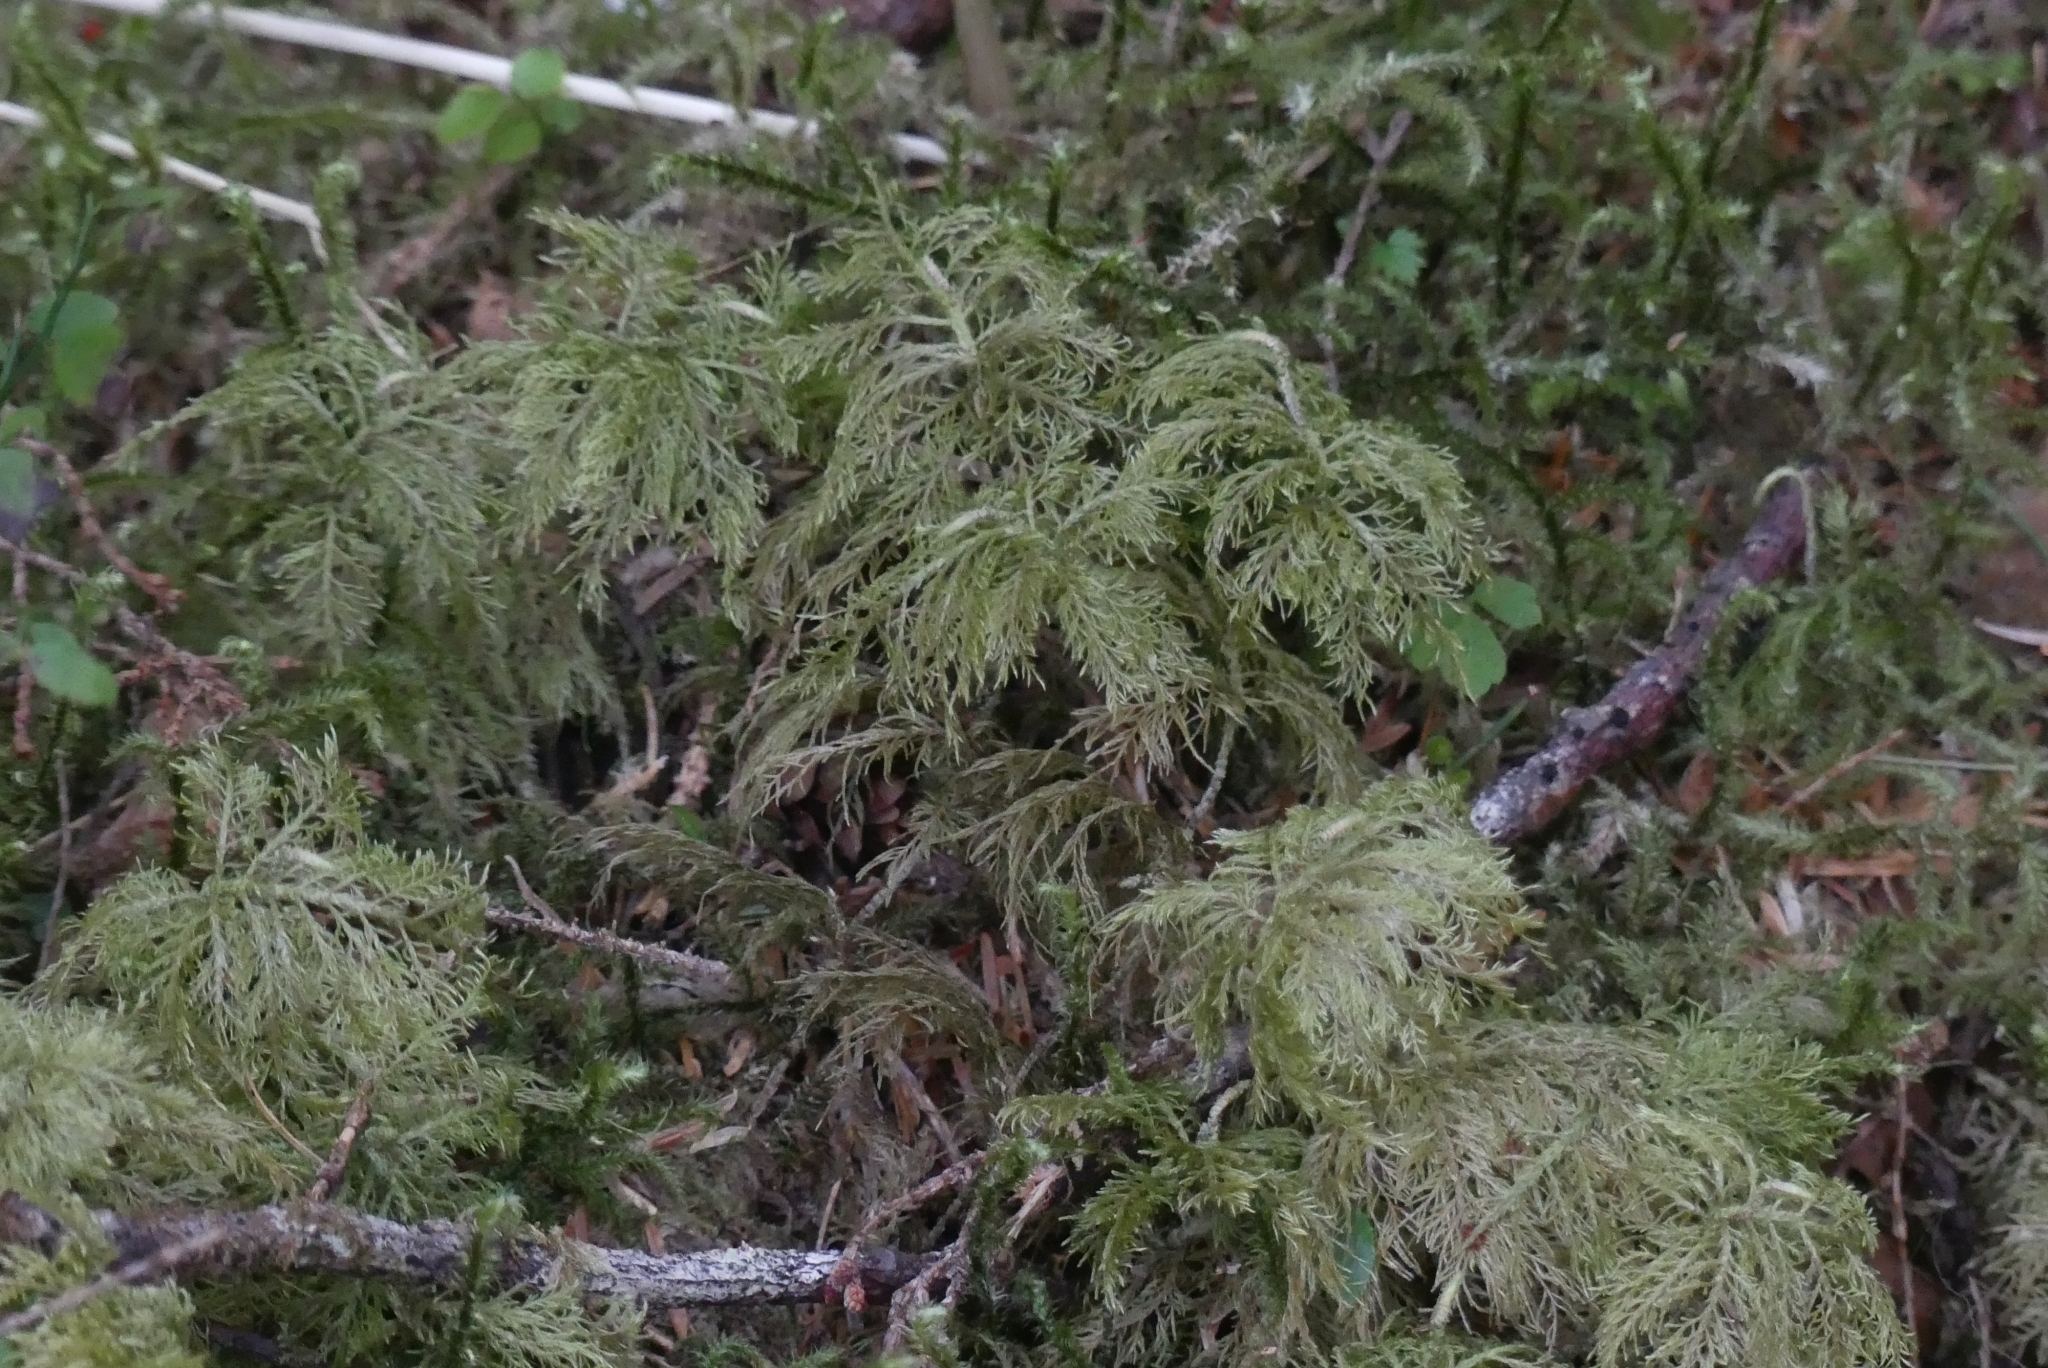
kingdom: Plantae
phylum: Bryophyta
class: Bryopsida
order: Hypnales
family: Hylocomiaceae
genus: Hylocomium
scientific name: Hylocomium splendens
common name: Stairstep moss
